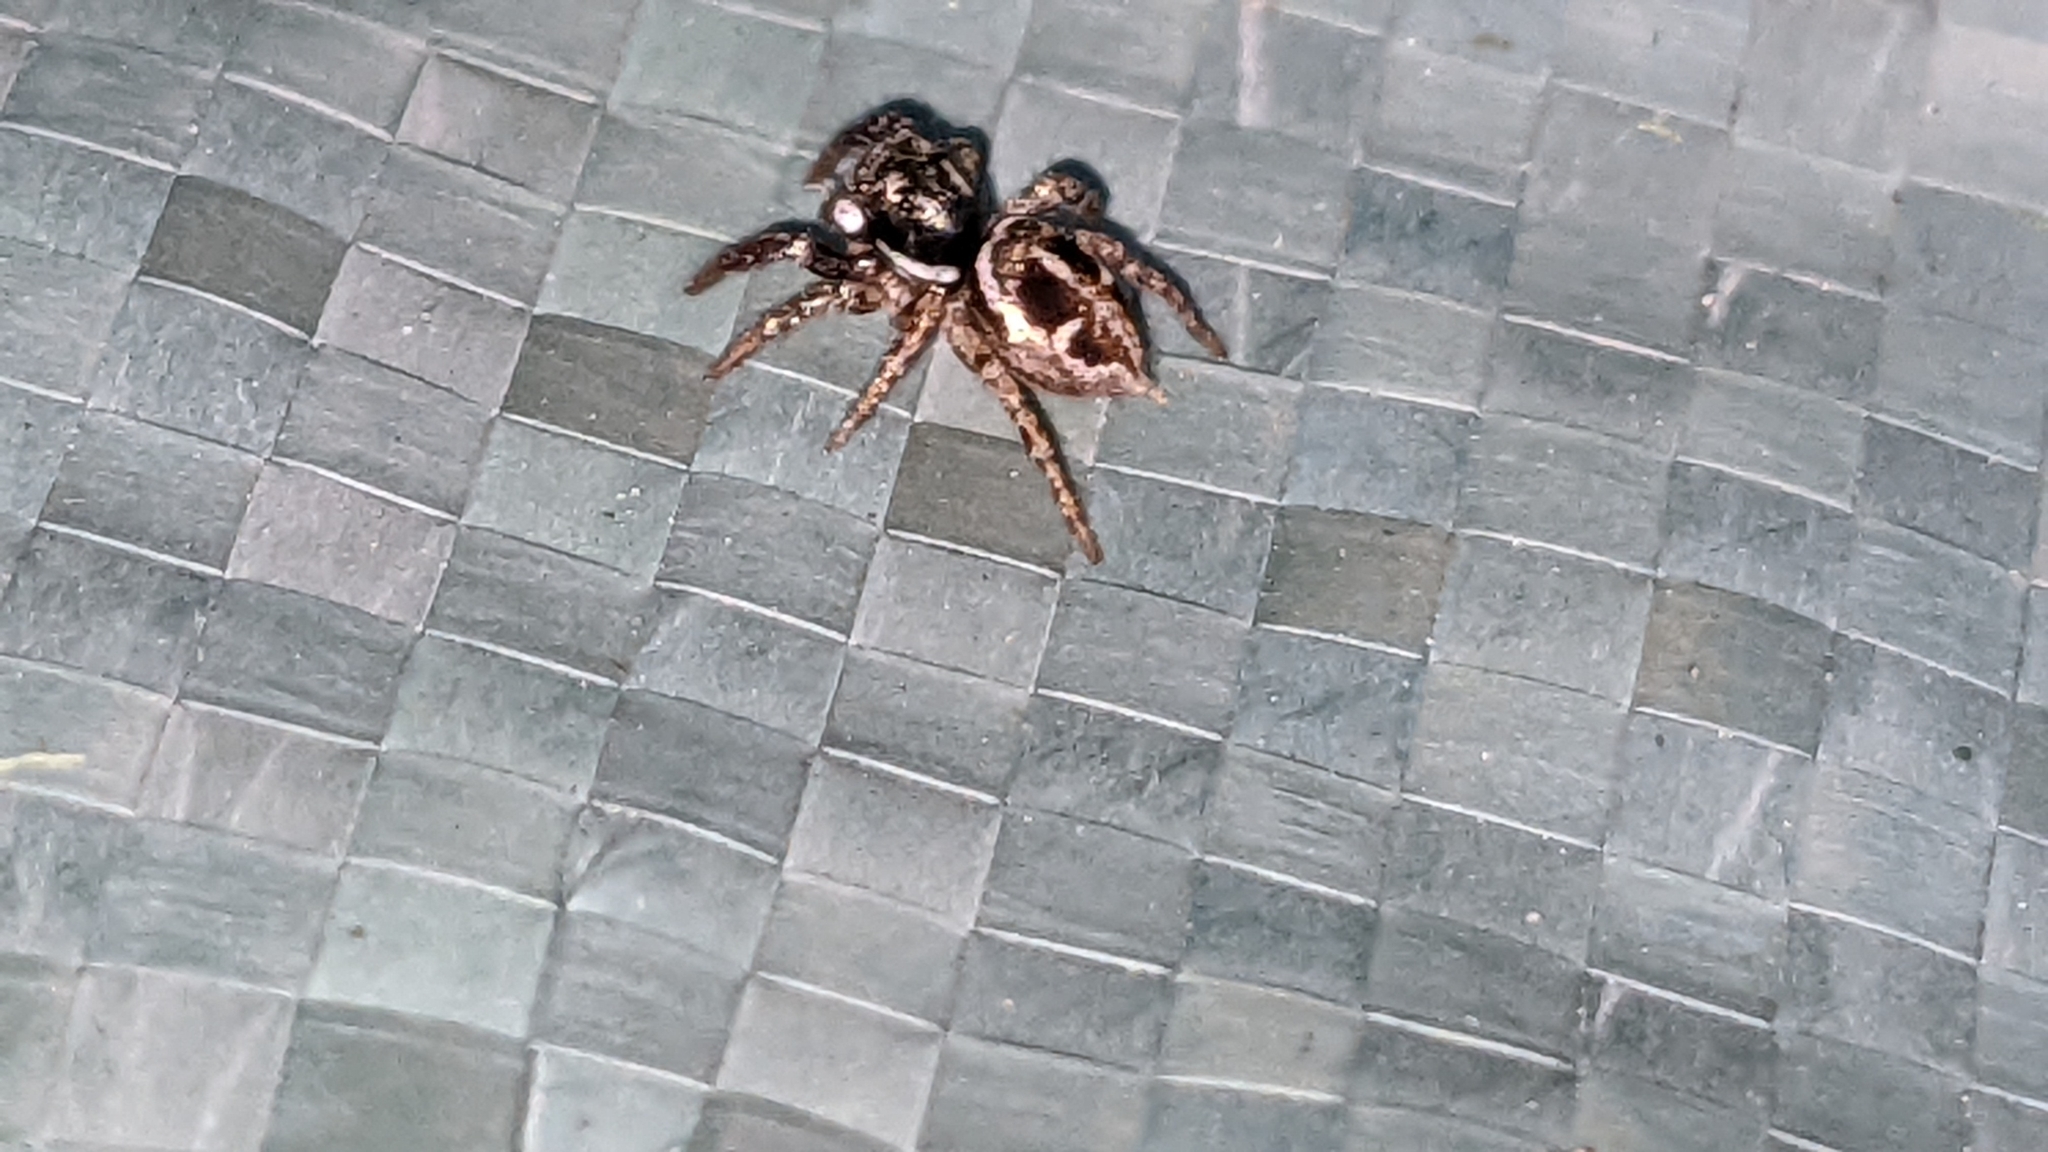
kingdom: Animalia
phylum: Arthropoda
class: Arachnida
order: Araneae
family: Salticidae
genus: Anasaitis
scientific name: Anasaitis canosa
